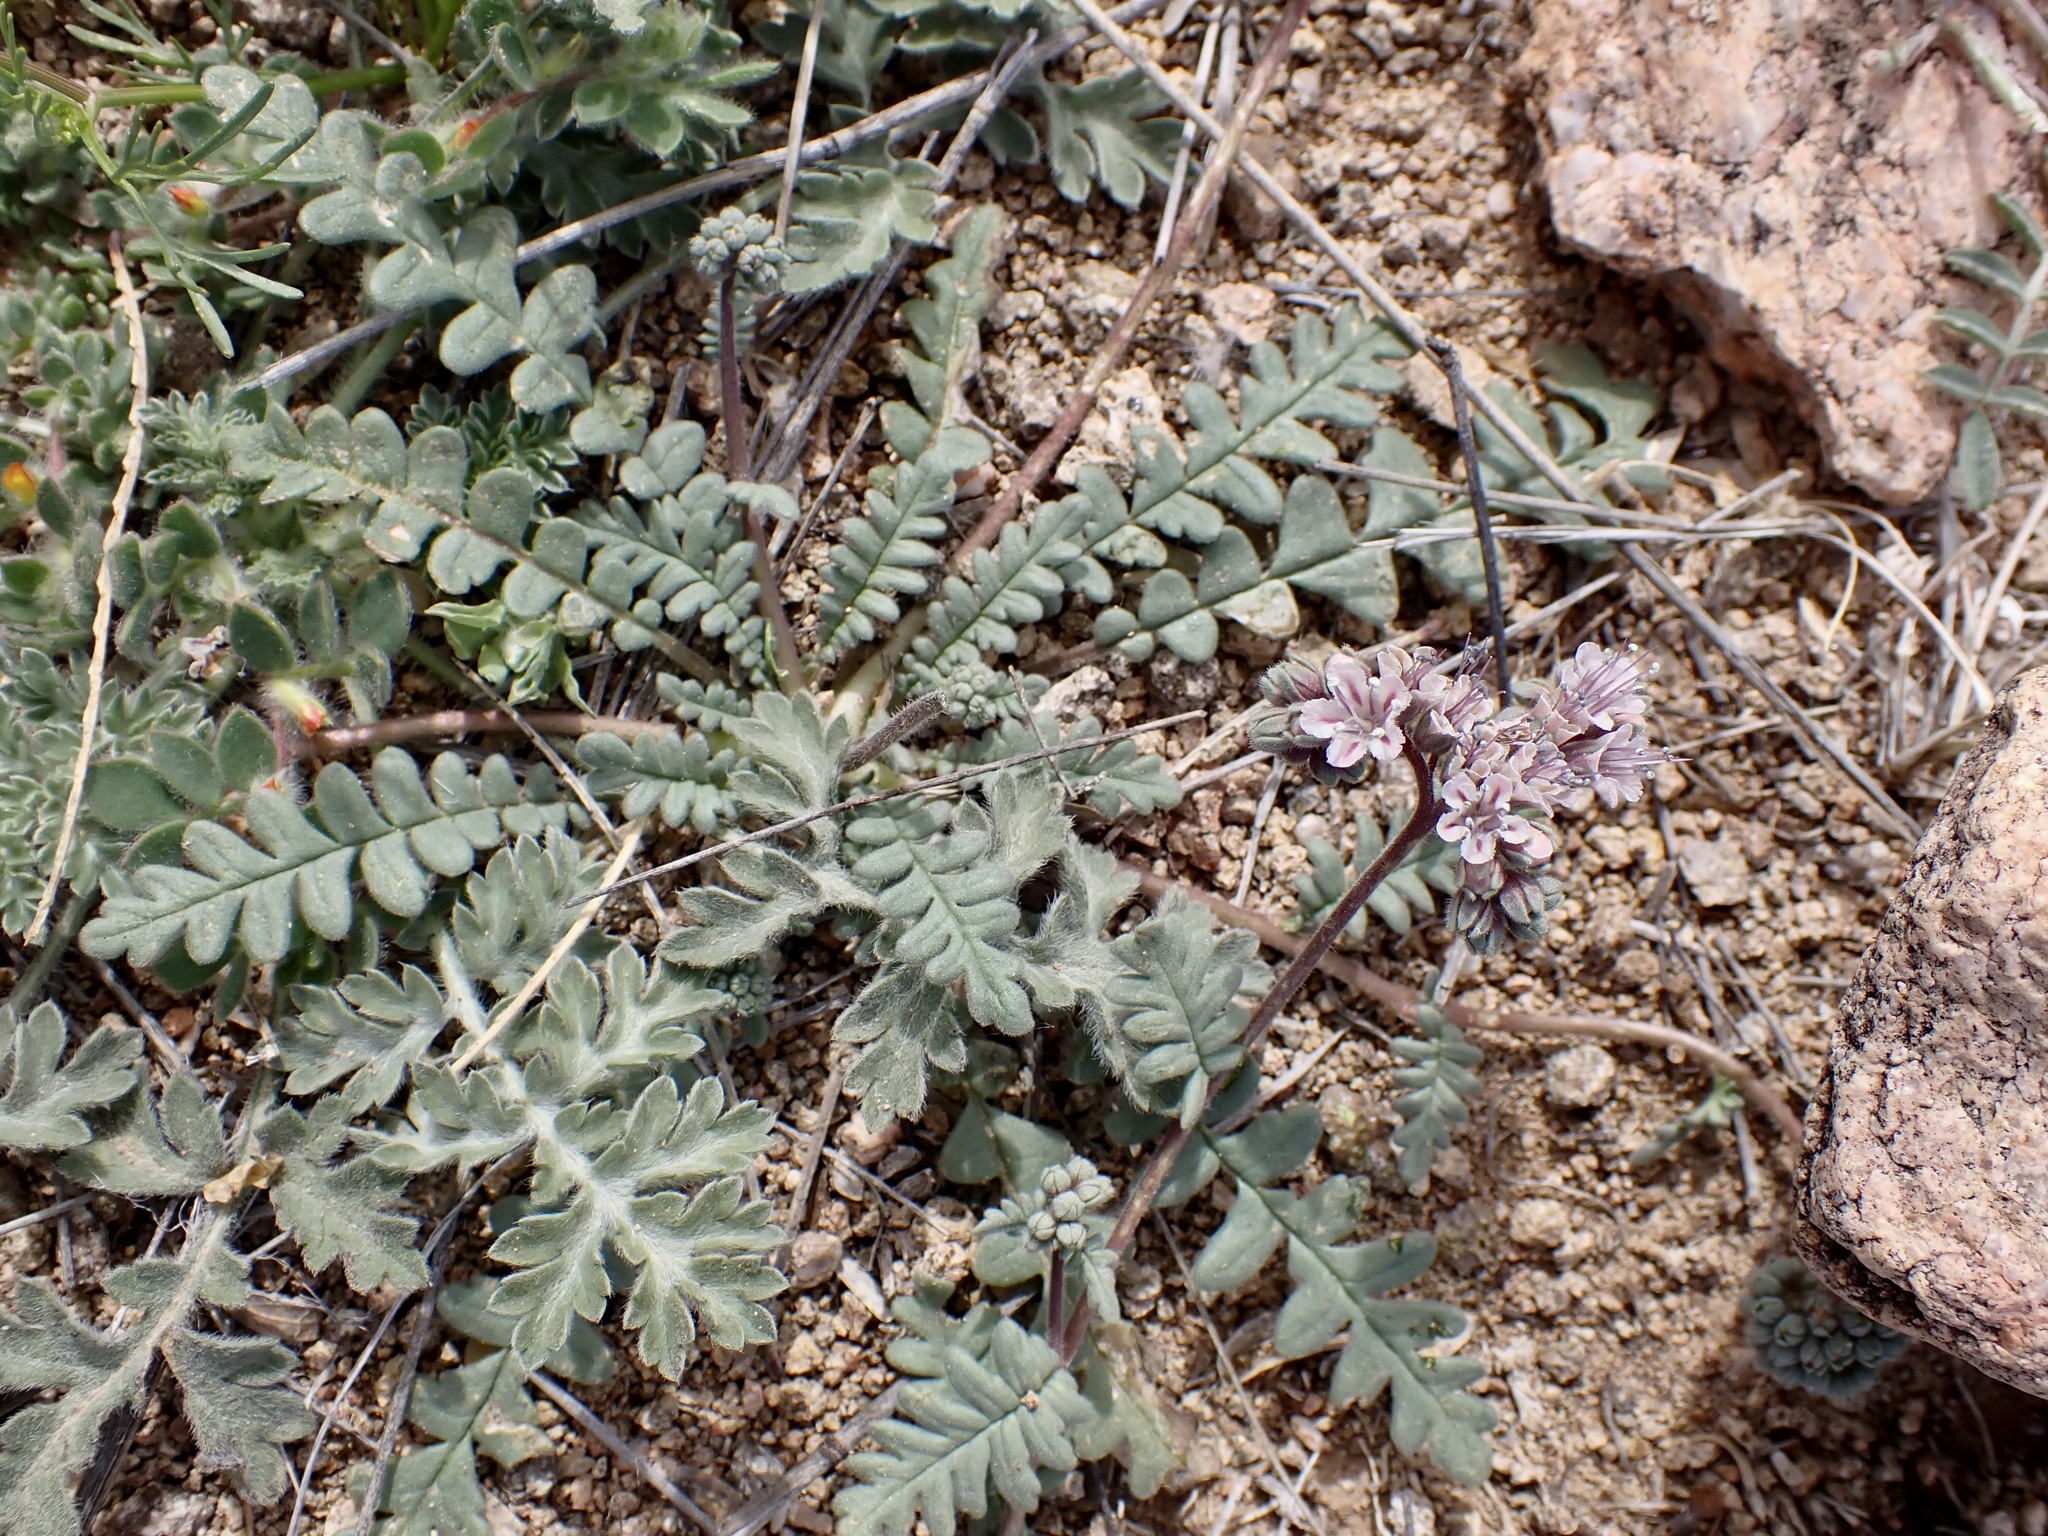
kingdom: Plantae
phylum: Tracheophyta
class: Magnoliopsida
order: Boraginales
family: Hydrophyllaceae
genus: Phacelia
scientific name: Phacelia arizonica
